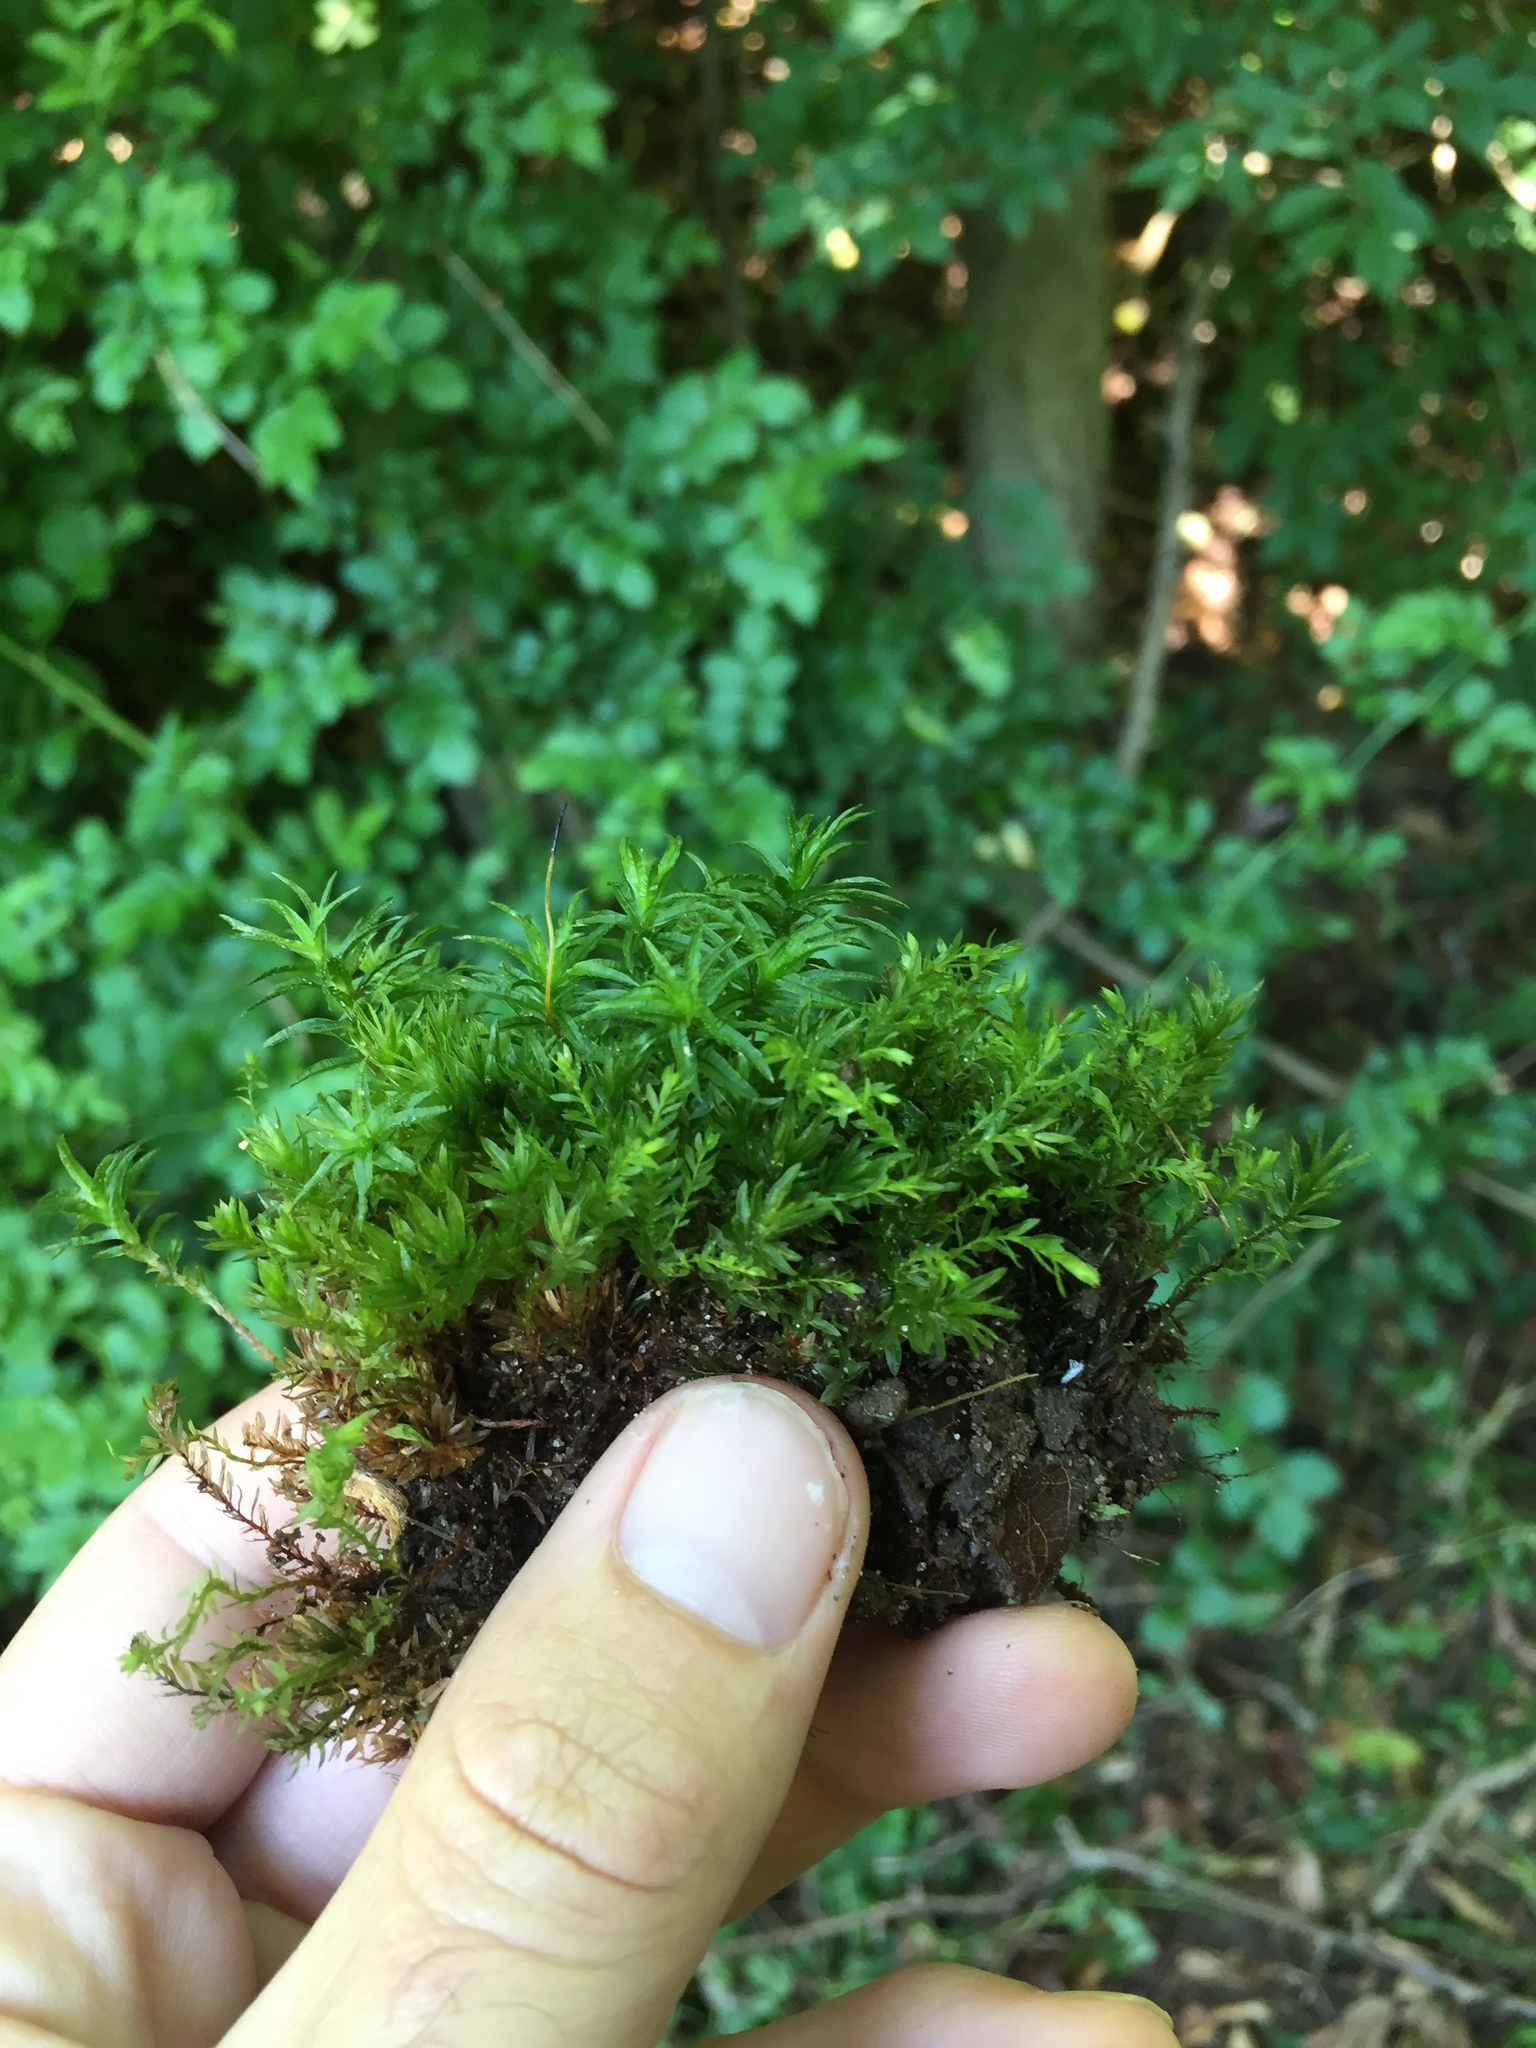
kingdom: Plantae
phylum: Bryophyta
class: Polytrichopsida
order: Polytrichales
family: Polytrichaceae
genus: Atrichum
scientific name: Atrichum angustatum
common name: Lesser smoothcap
